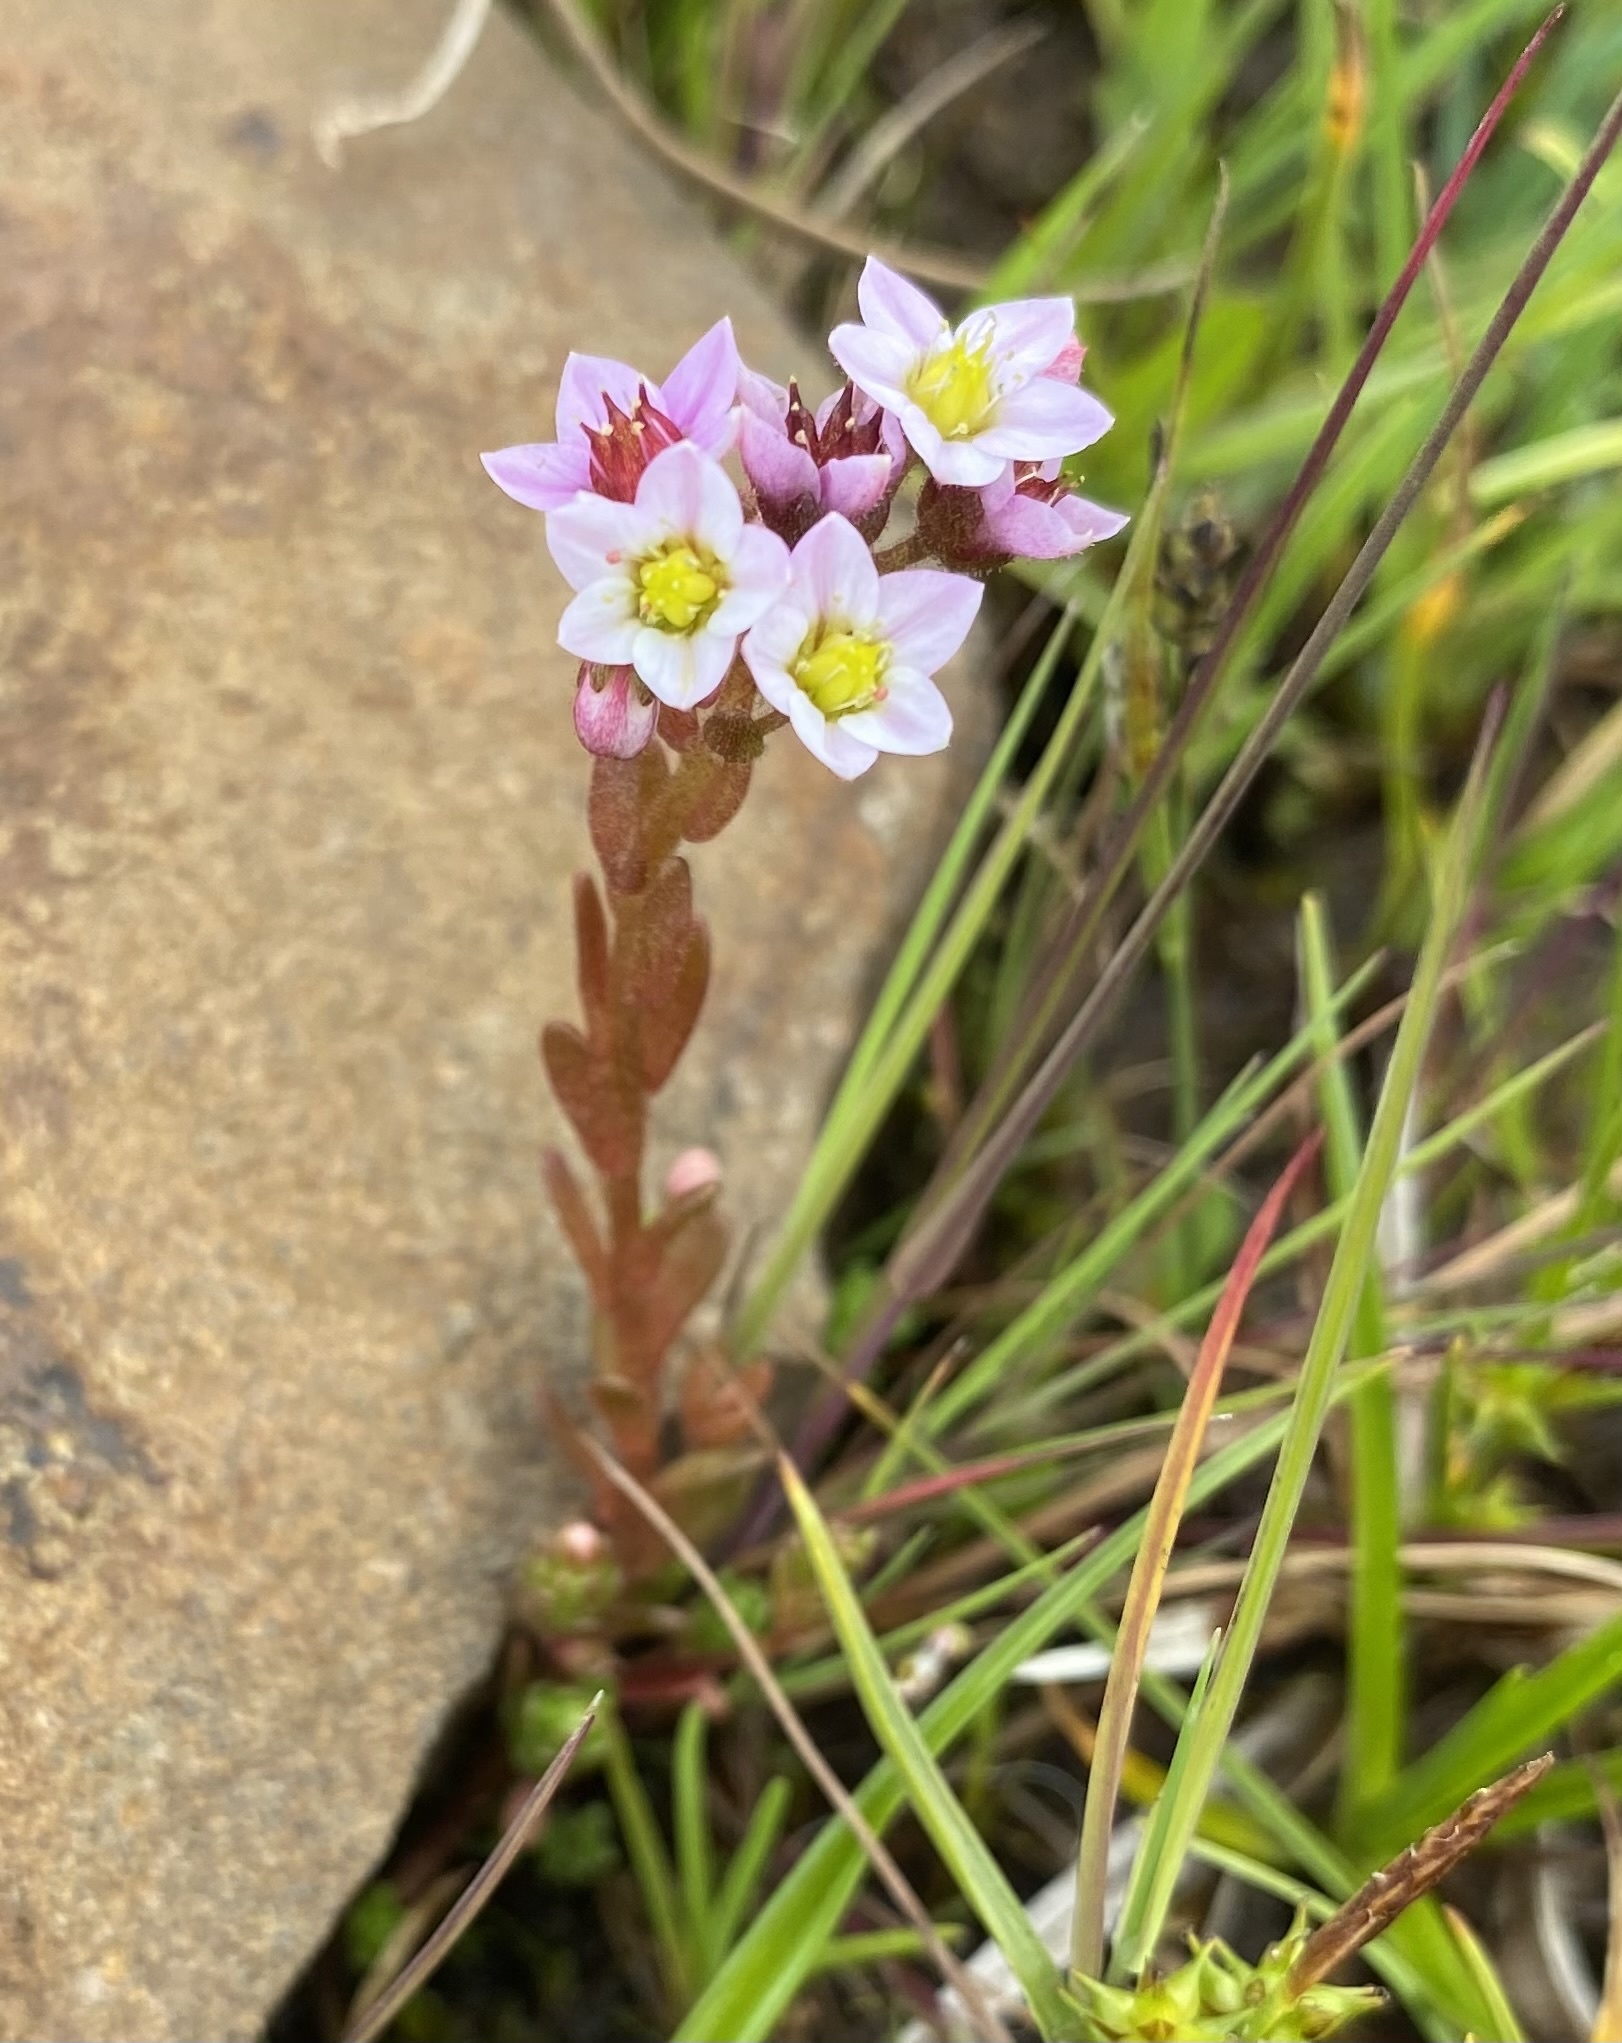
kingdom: Plantae
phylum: Tracheophyta
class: Magnoliopsida
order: Saxifragales
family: Crassulaceae
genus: Sedum
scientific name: Sedum villosum
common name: Hairy stonecrop
